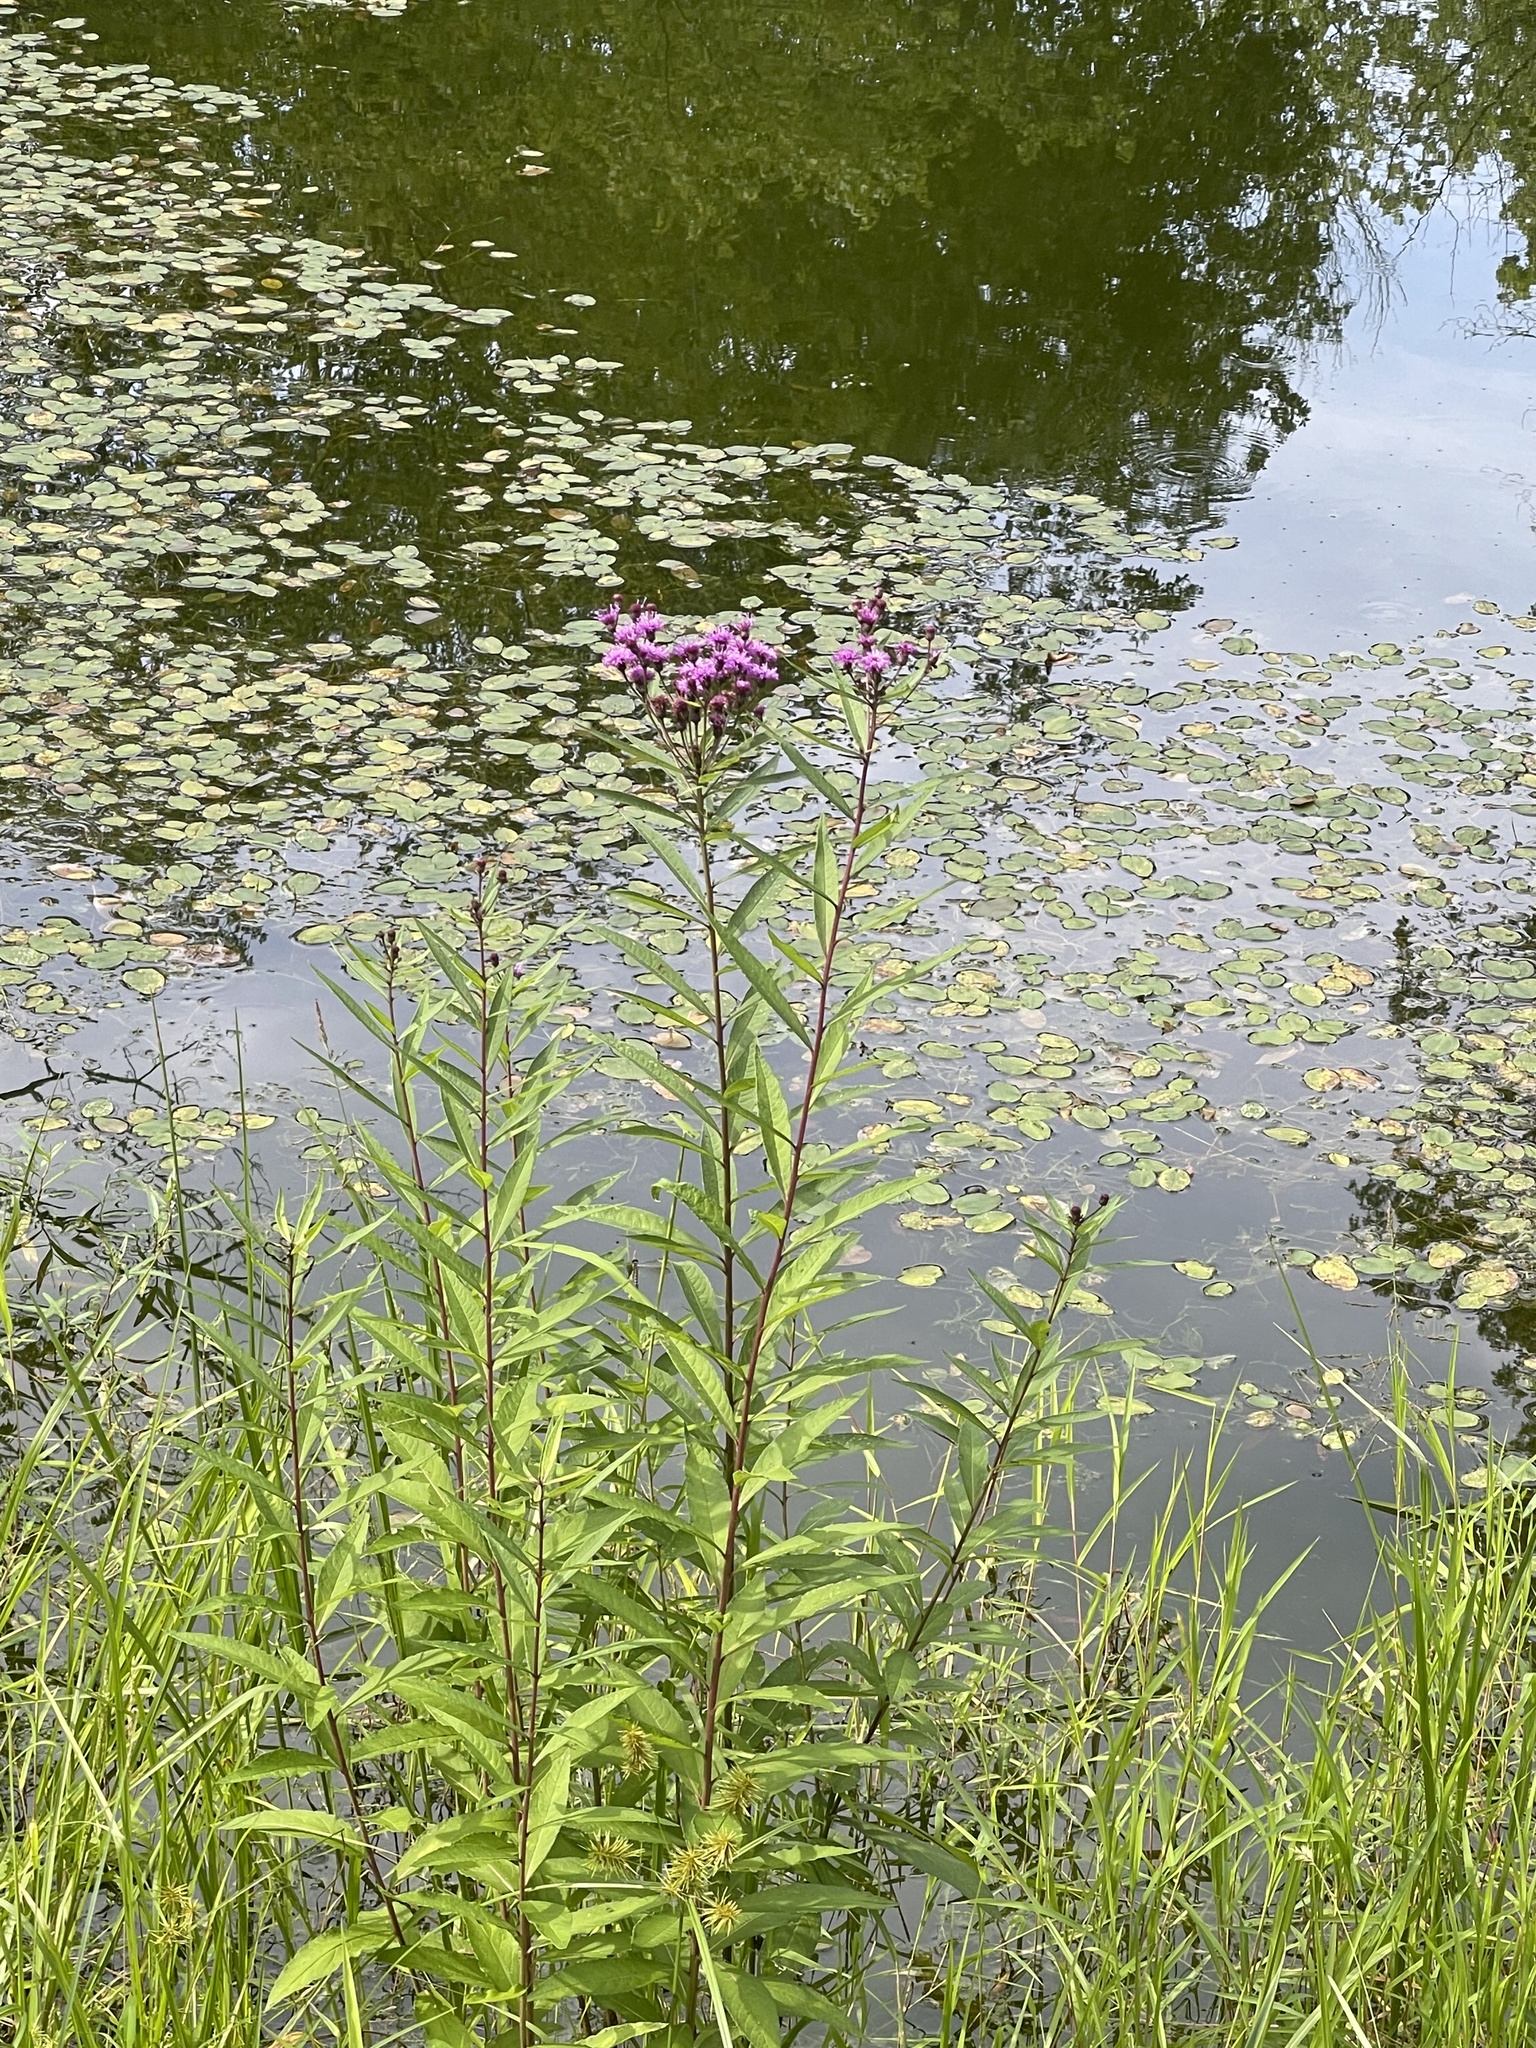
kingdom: Plantae
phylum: Tracheophyta
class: Magnoliopsida
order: Asterales
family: Asteraceae
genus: Vernonia
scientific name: Vernonia noveboracensis
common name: New york ironweed
